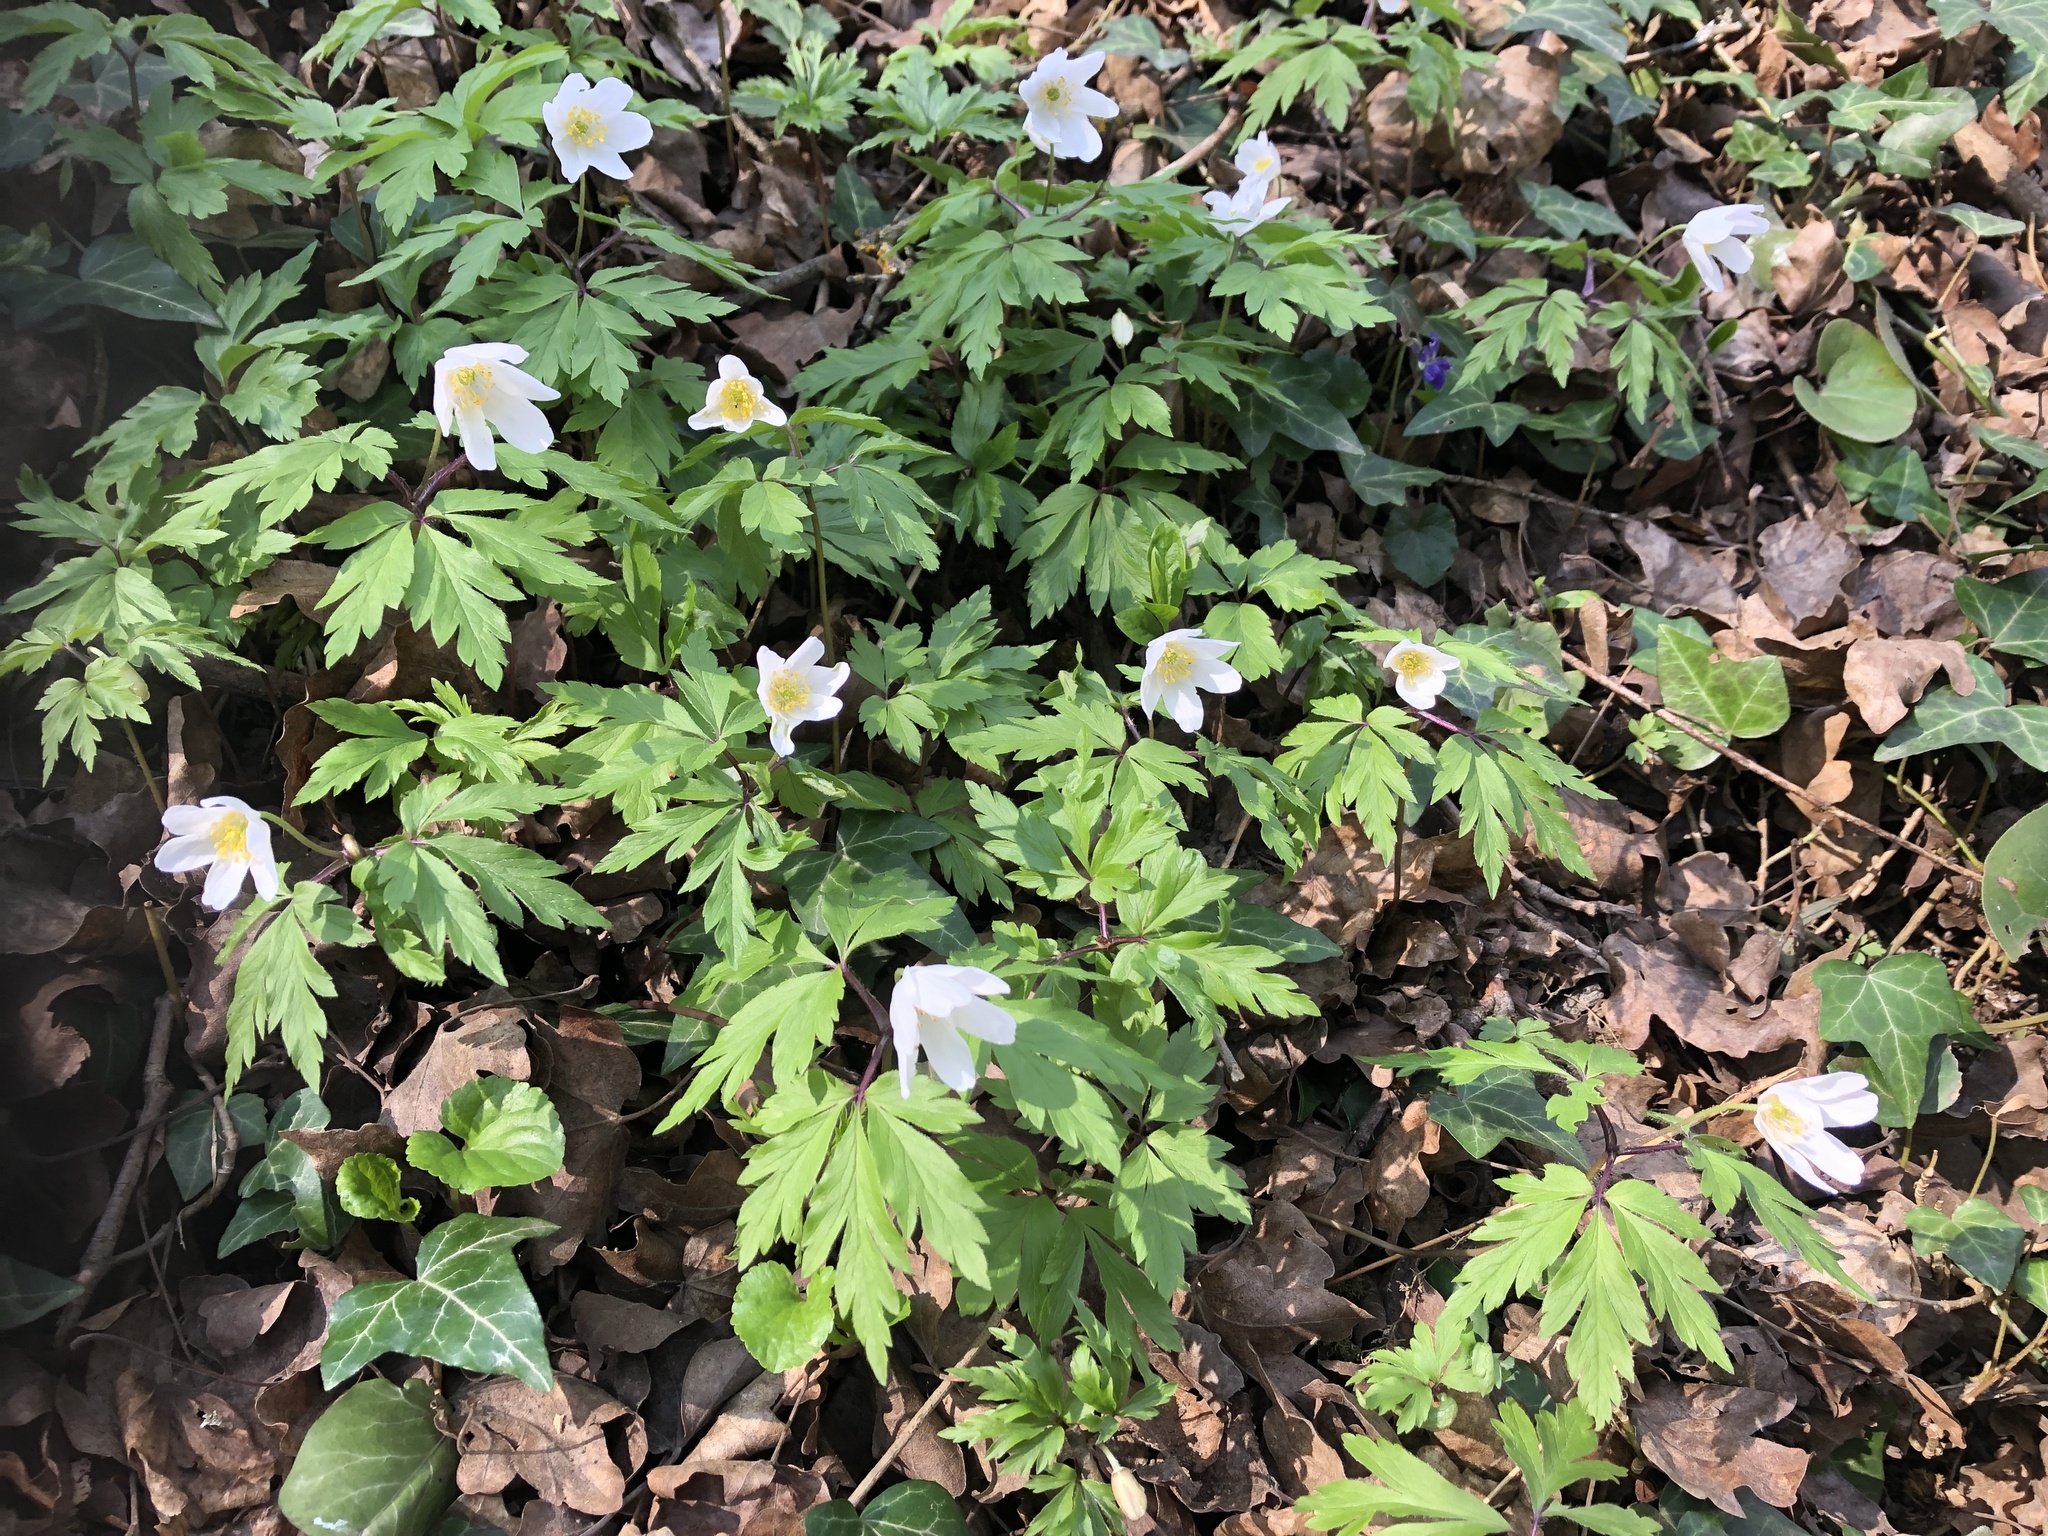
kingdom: Plantae
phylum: Tracheophyta
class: Magnoliopsida
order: Ranunculales
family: Ranunculaceae
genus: Anemone
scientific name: Anemone nemorosa
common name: Wood anemone
